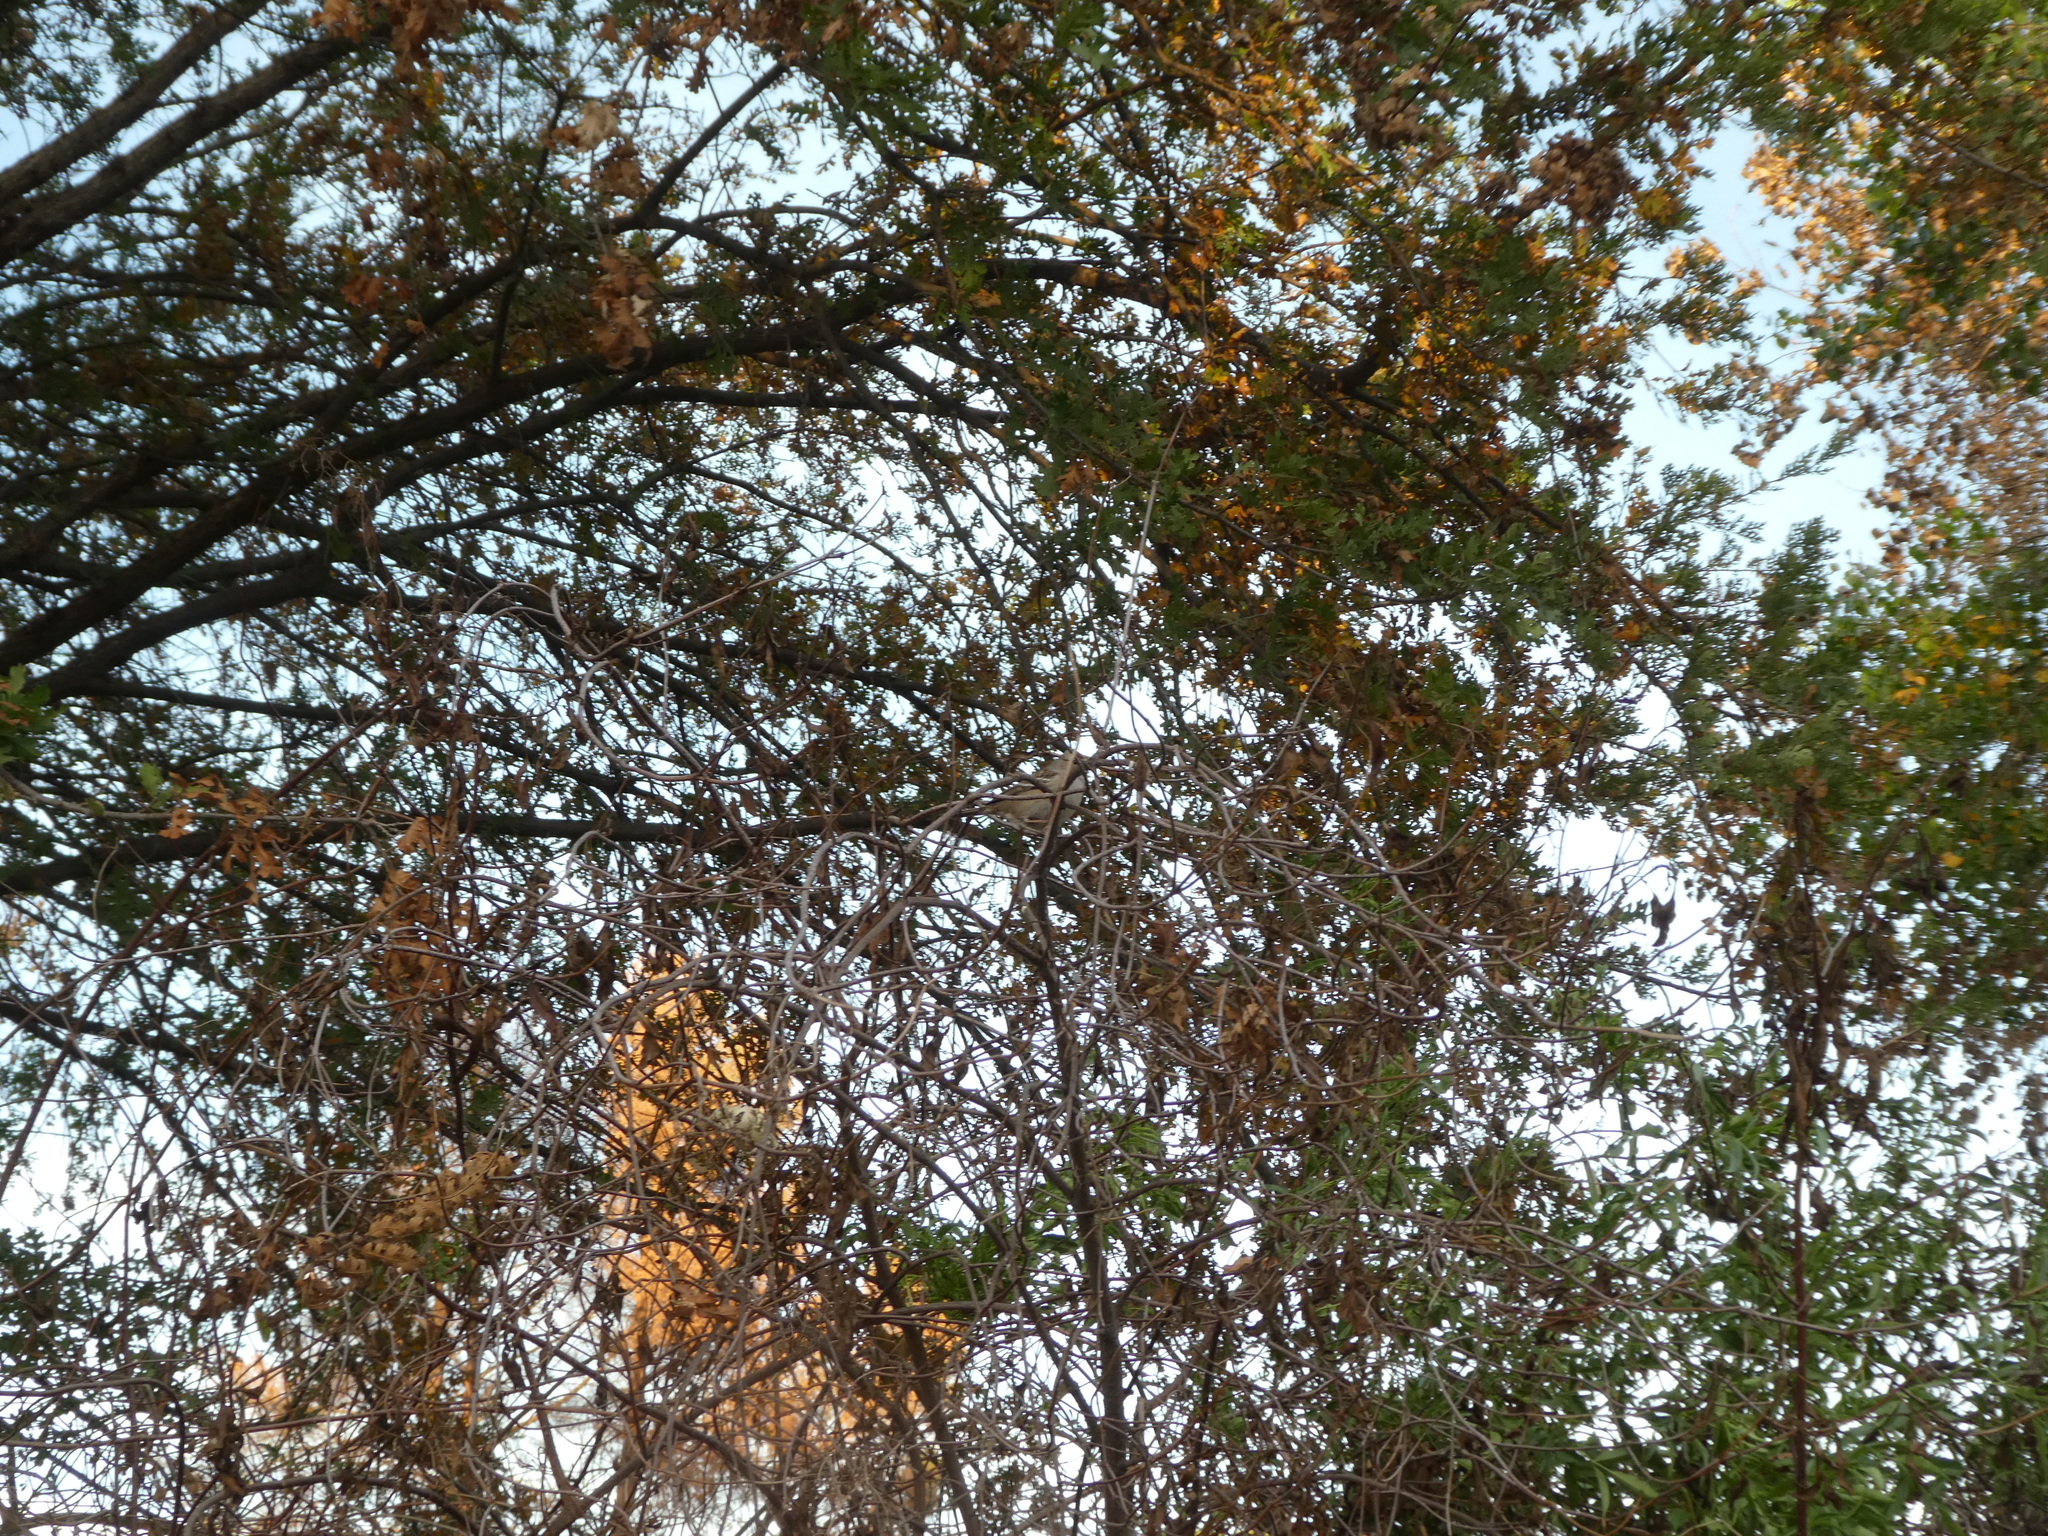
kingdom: Animalia
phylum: Chordata
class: Aves
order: Passeriformes
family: Passerellidae
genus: Zonotrichia
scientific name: Zonotrichia leucophrys
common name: White-crowned sparrow
